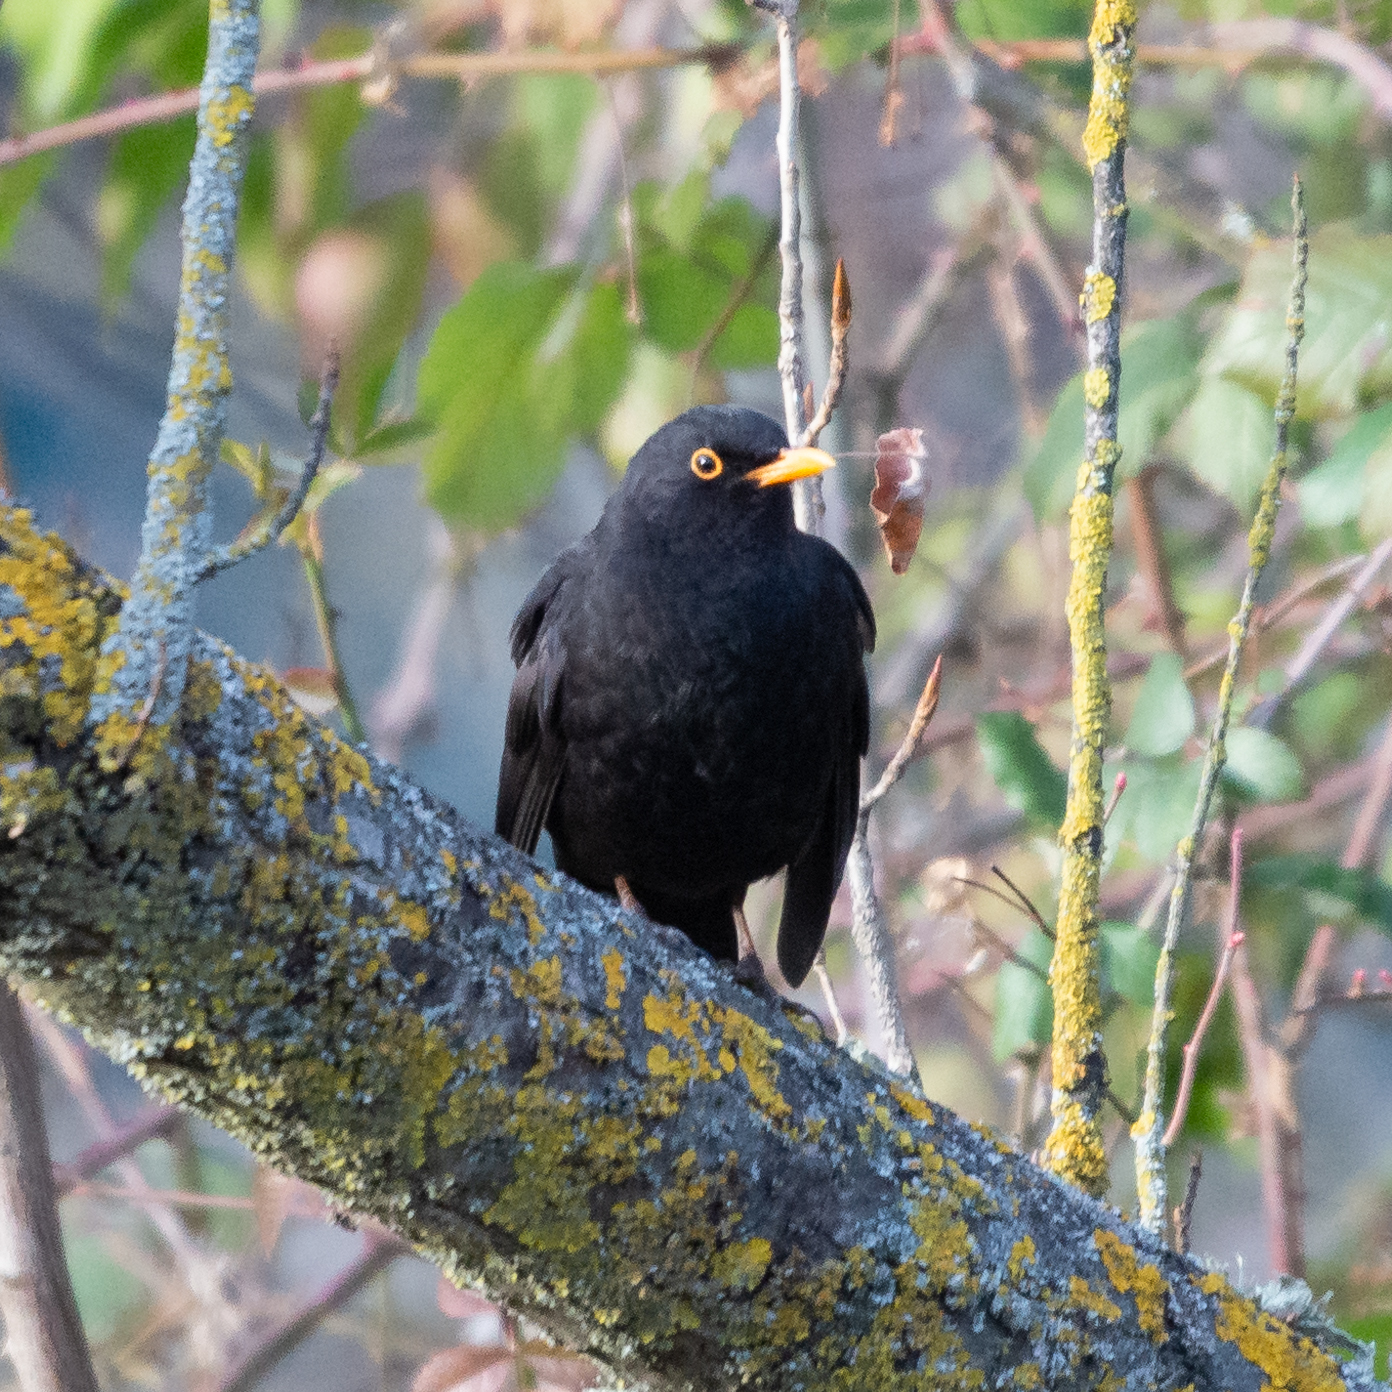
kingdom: Animalia
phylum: Chordata
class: Aves
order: Passeriformes
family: Turdidae
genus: Turdus
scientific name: Turdus merula
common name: Common blackbird
